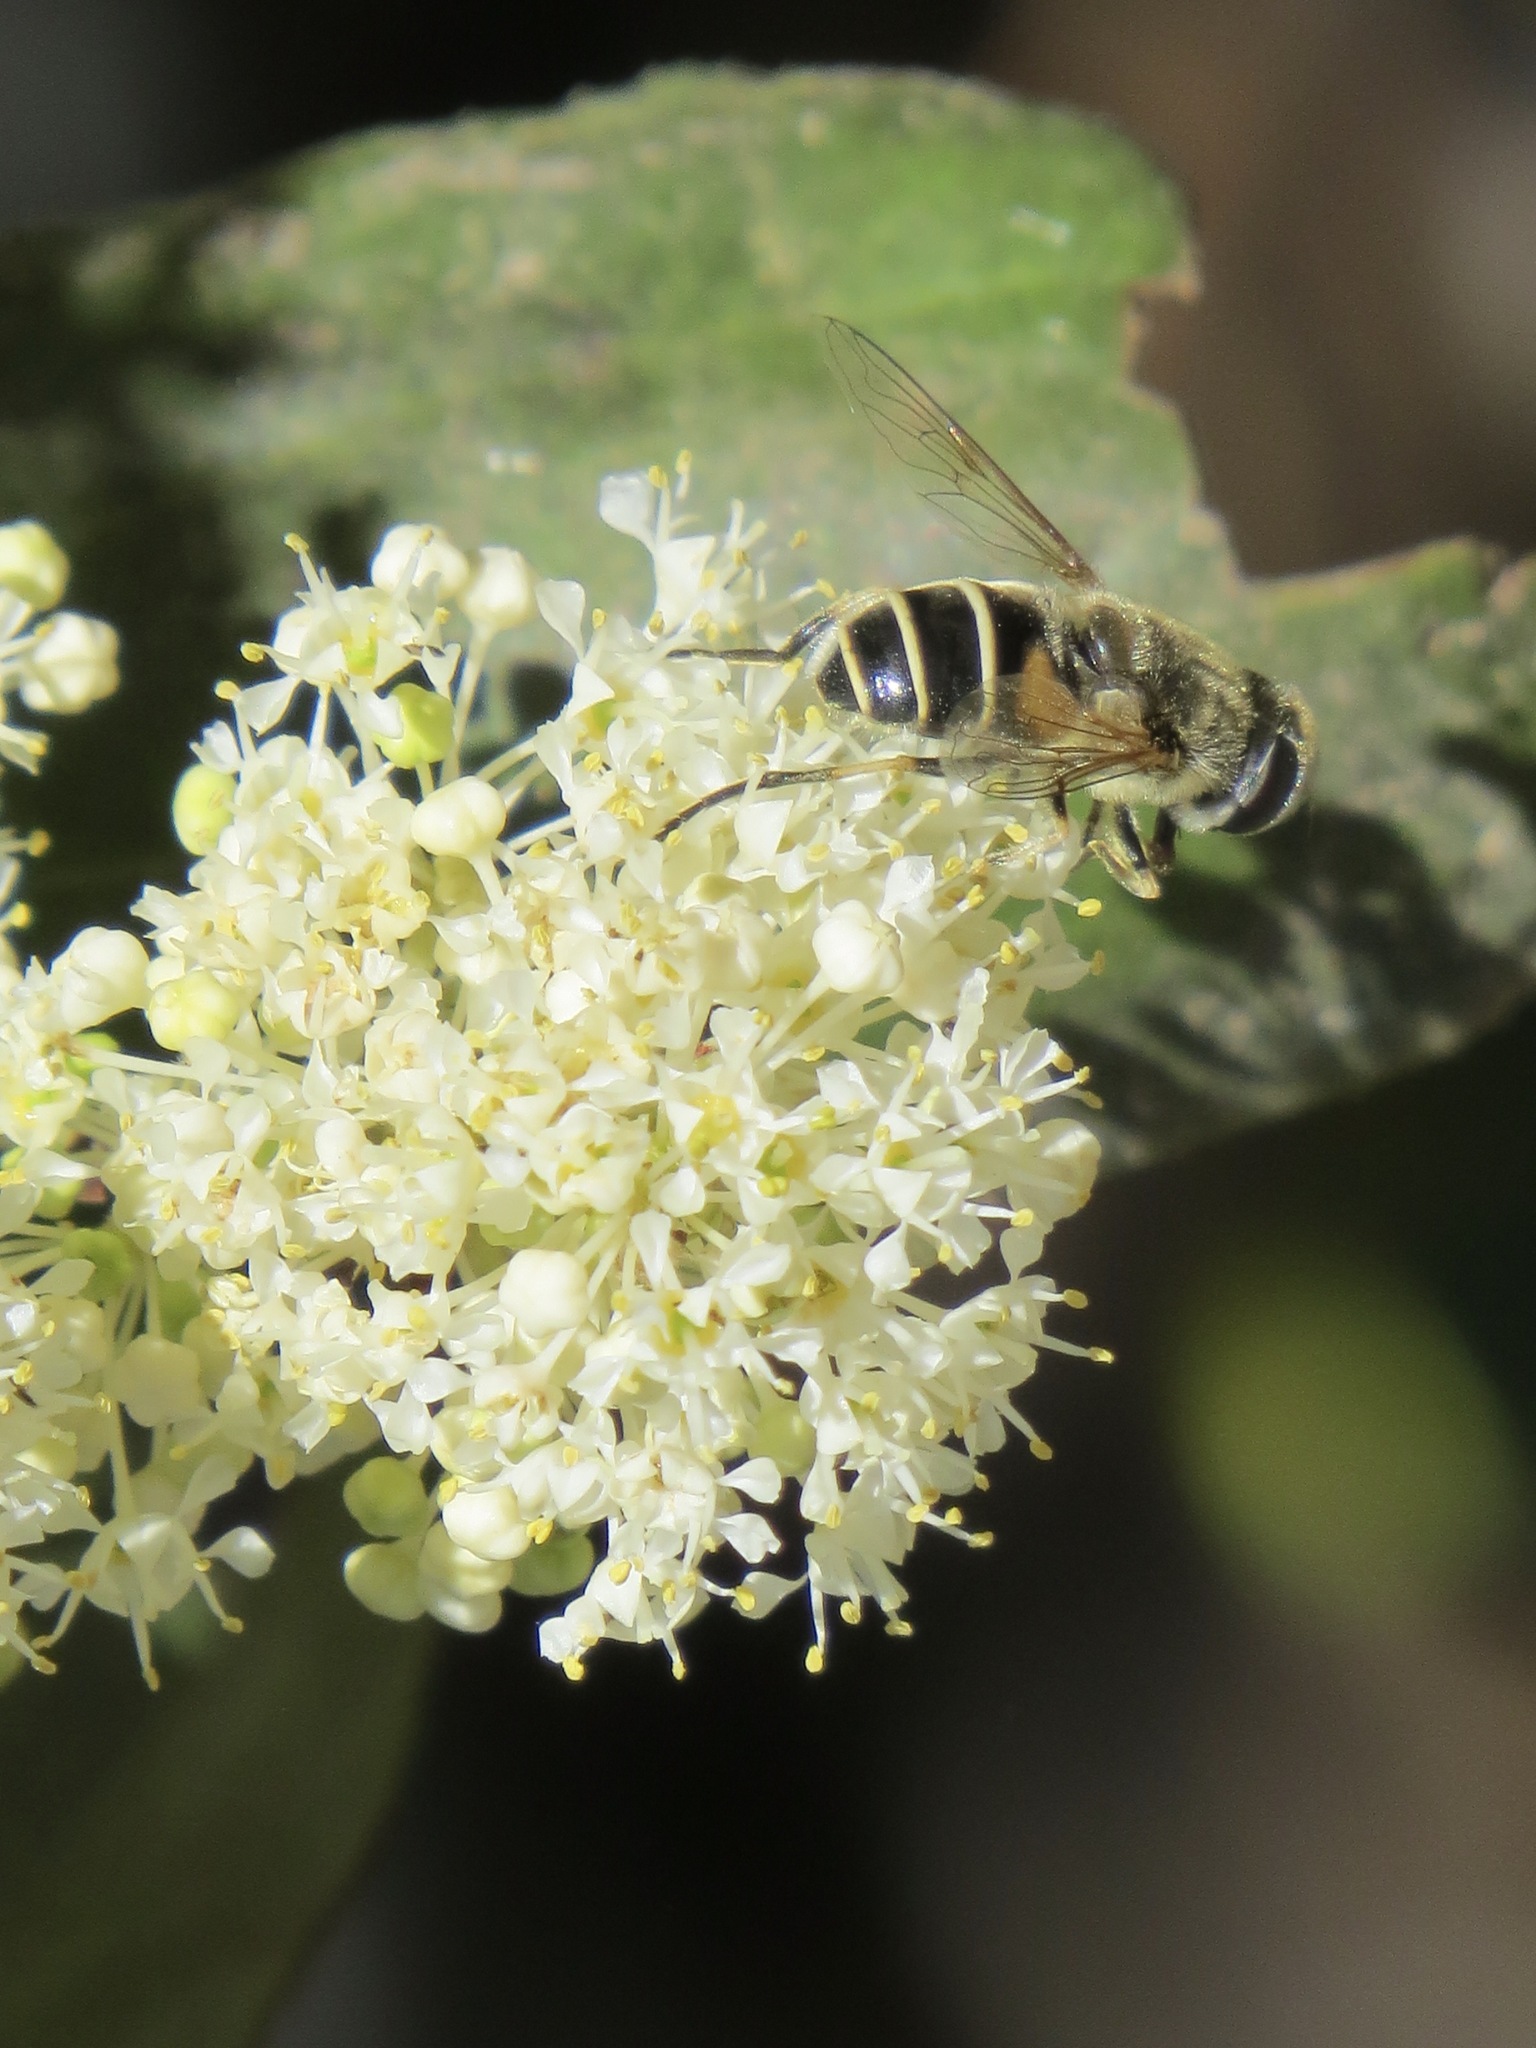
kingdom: Animalia
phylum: Arthropoda
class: Insecta
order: Diptera
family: Syrphidae
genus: Eristalis
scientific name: Eristalis hirta
